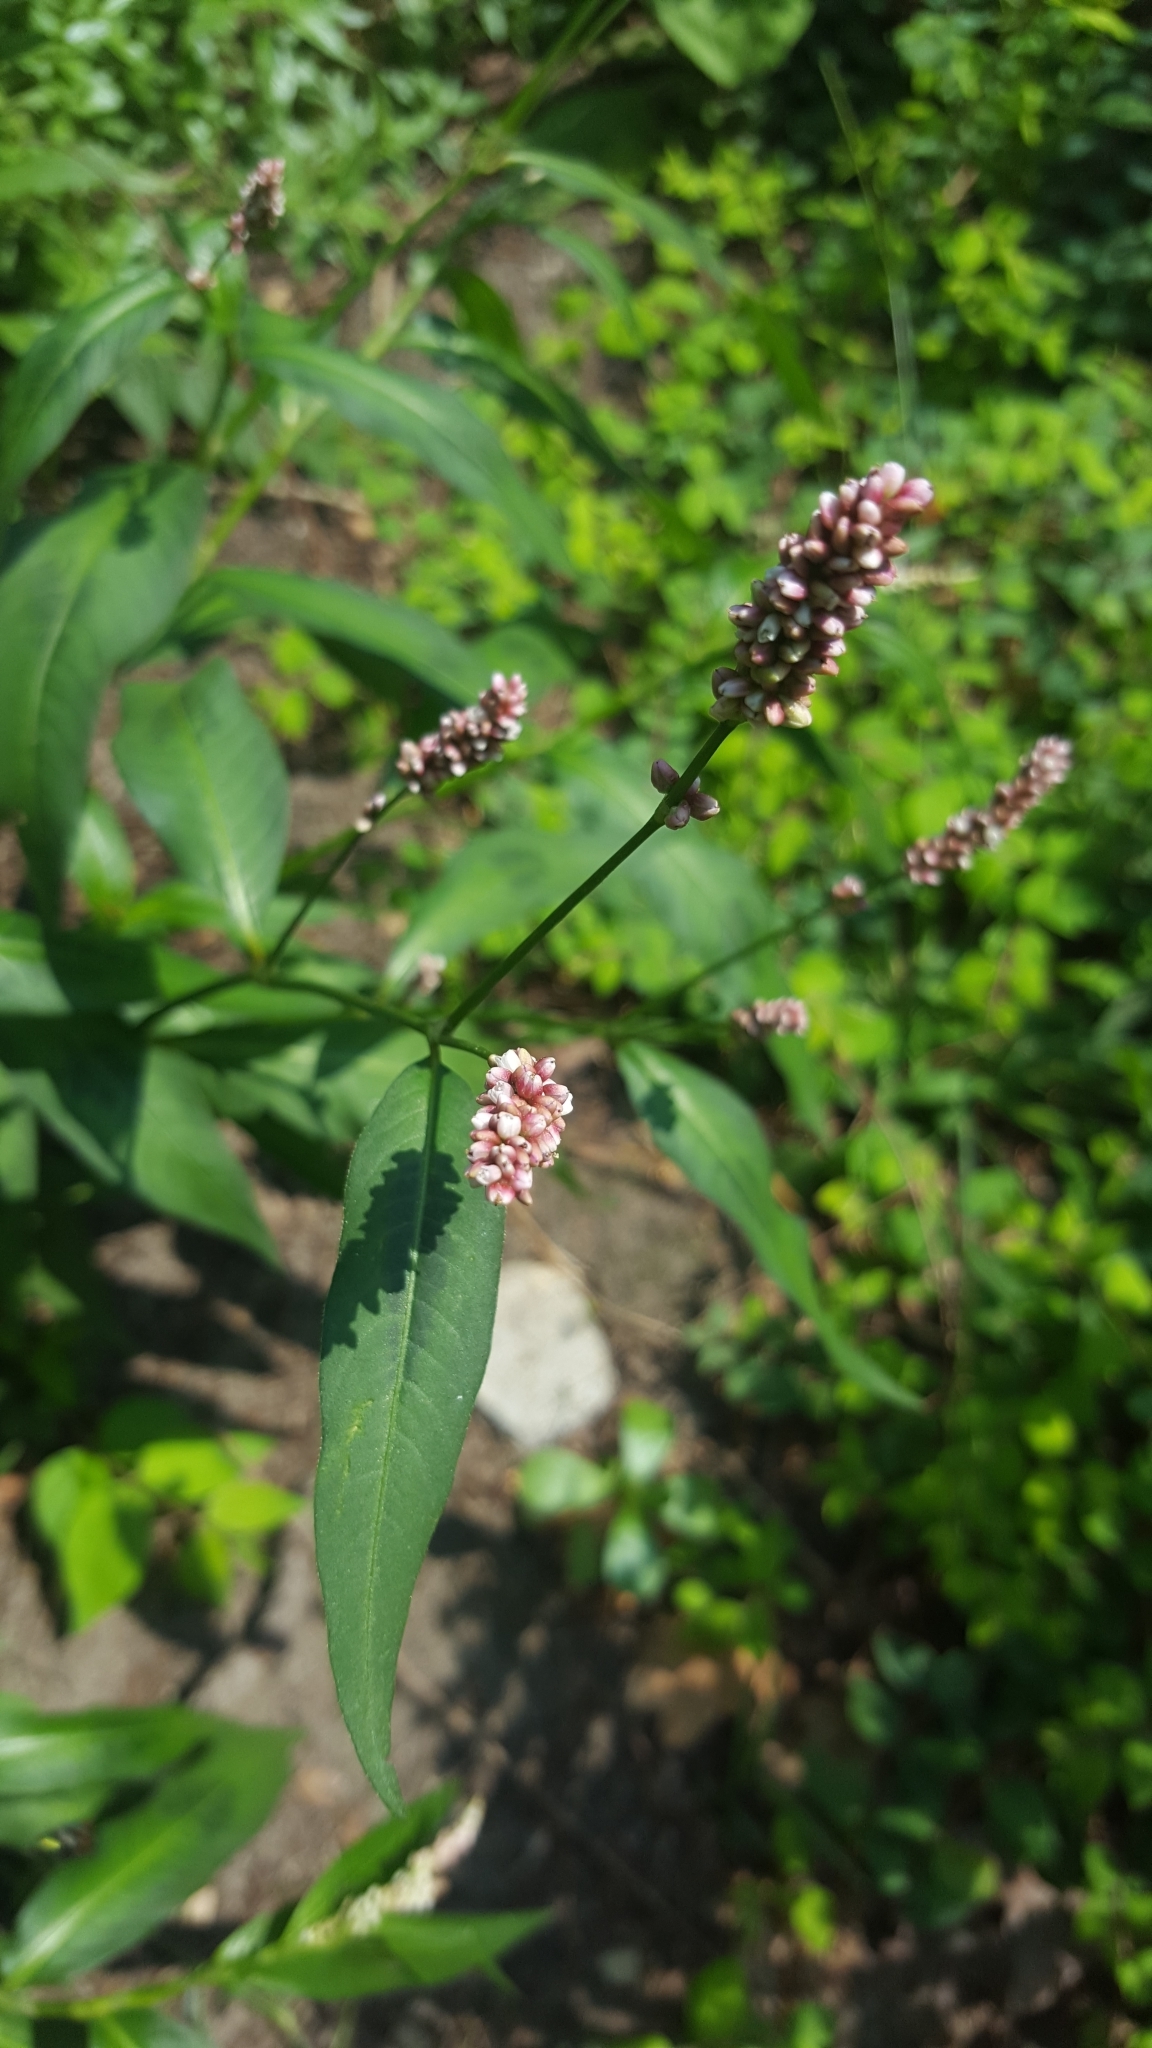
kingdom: Plantae
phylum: Tracheophyta
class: Magnoliopsida
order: Caryophyllales
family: Polygonaceae
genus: Persicaria
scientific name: Persicaria maculosa
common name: Redshank
